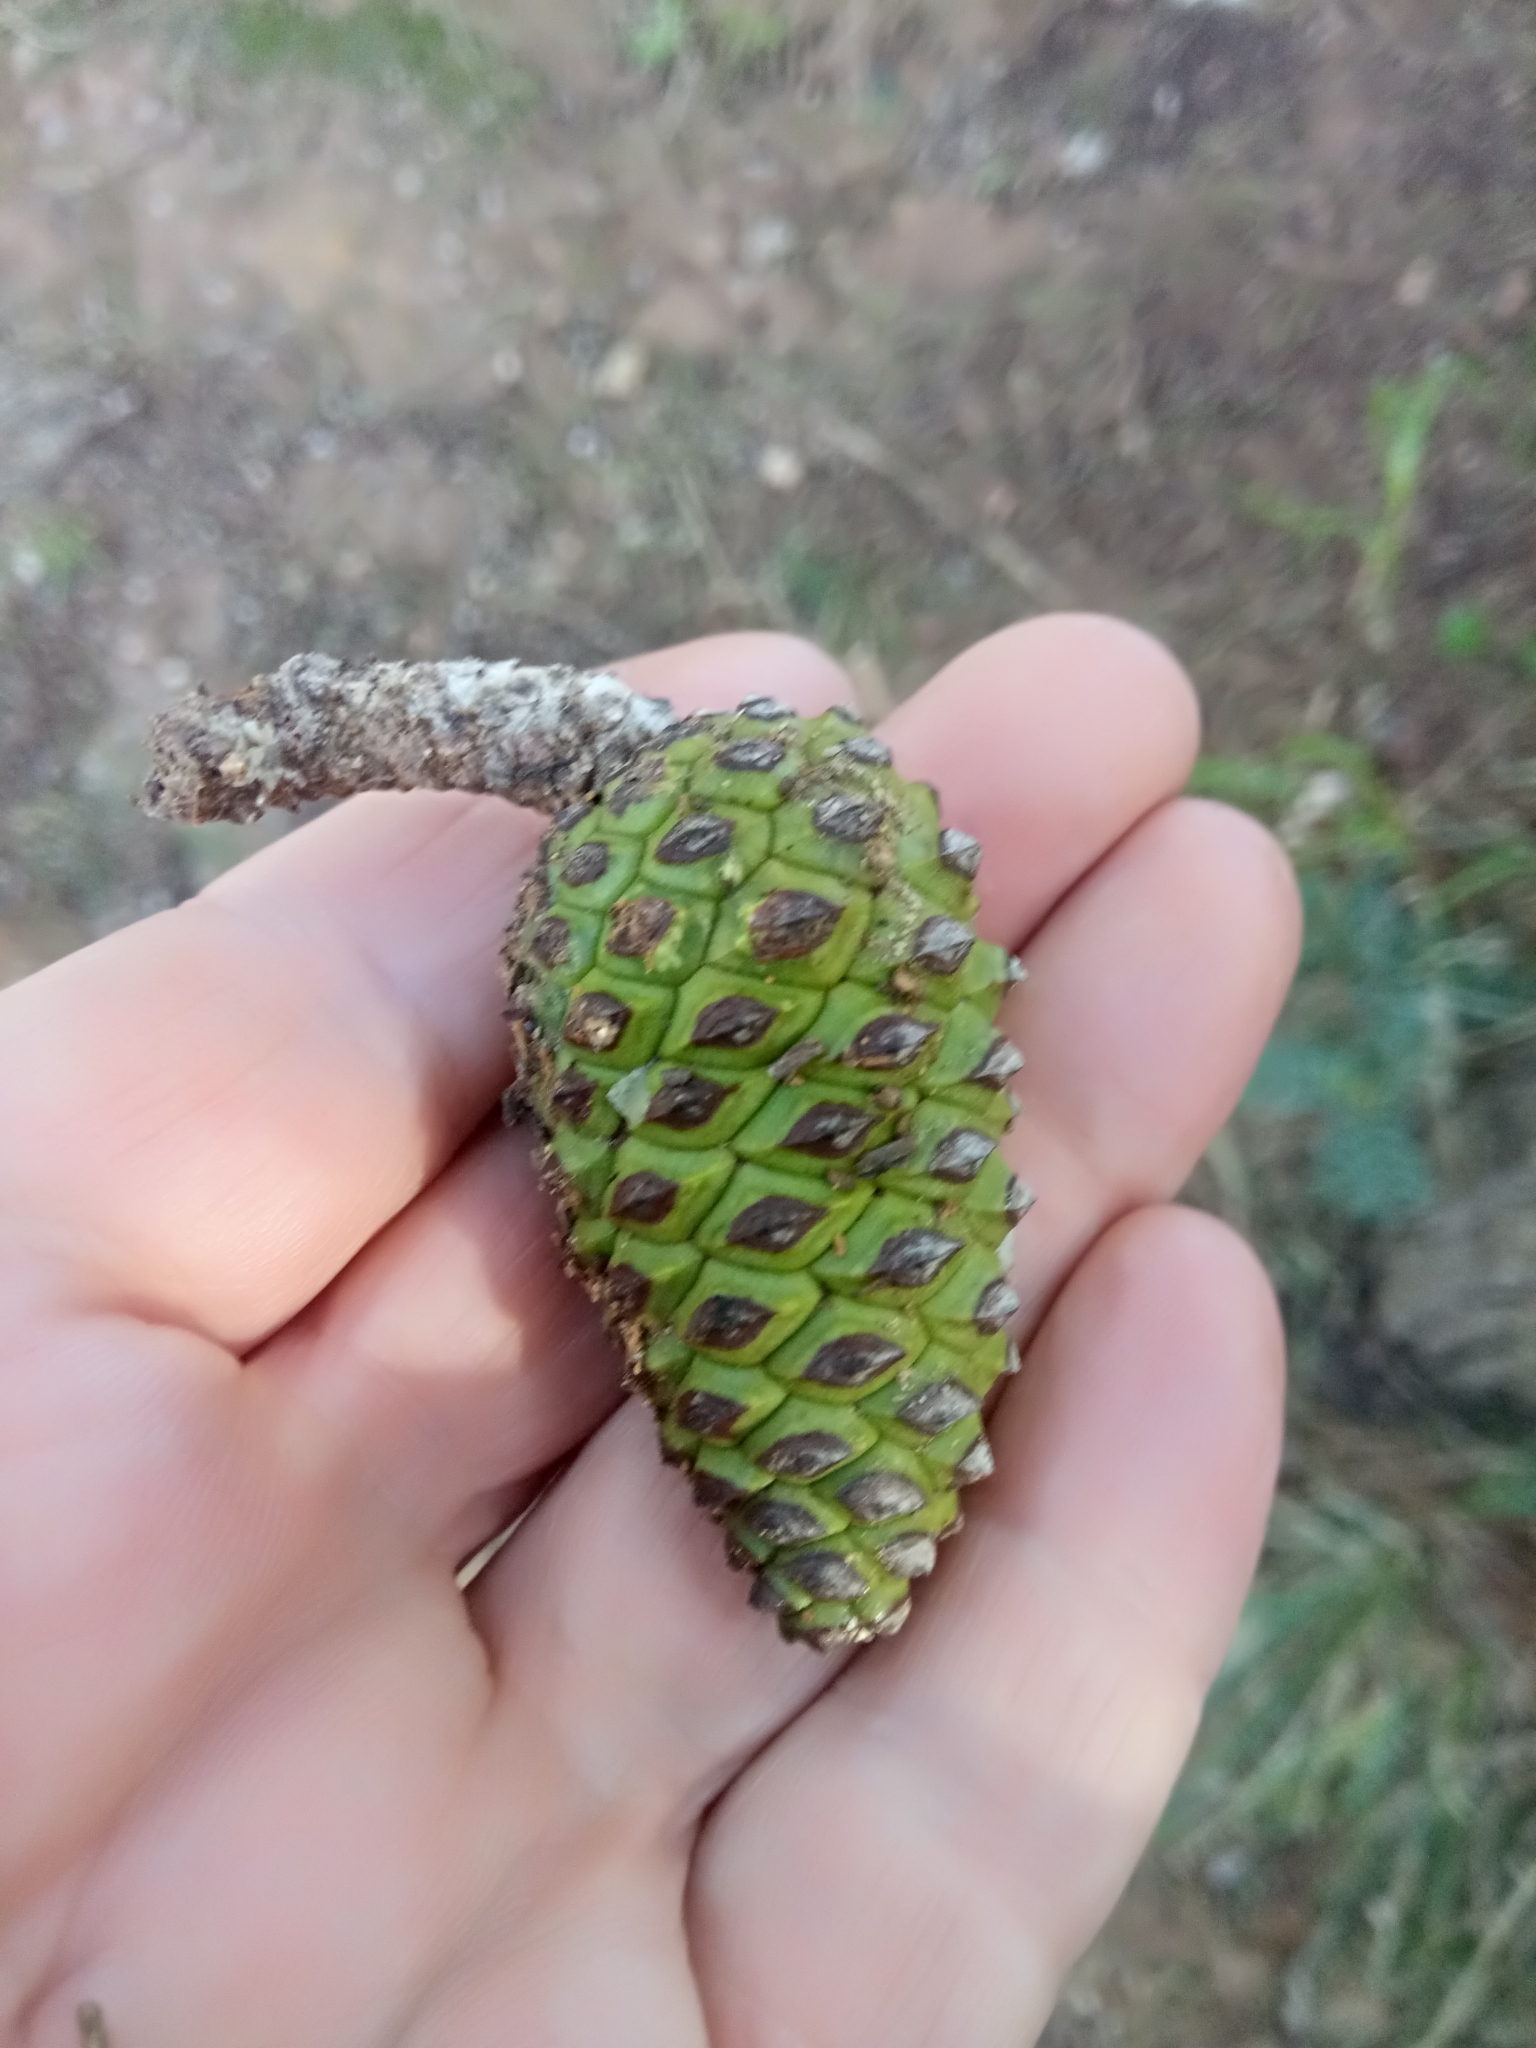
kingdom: Plantae
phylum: Tracheophyta
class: Pinopsida
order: Pinales
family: Pinaceae
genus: Pinus
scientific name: Pinus halepensis
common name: Aleppo pine
